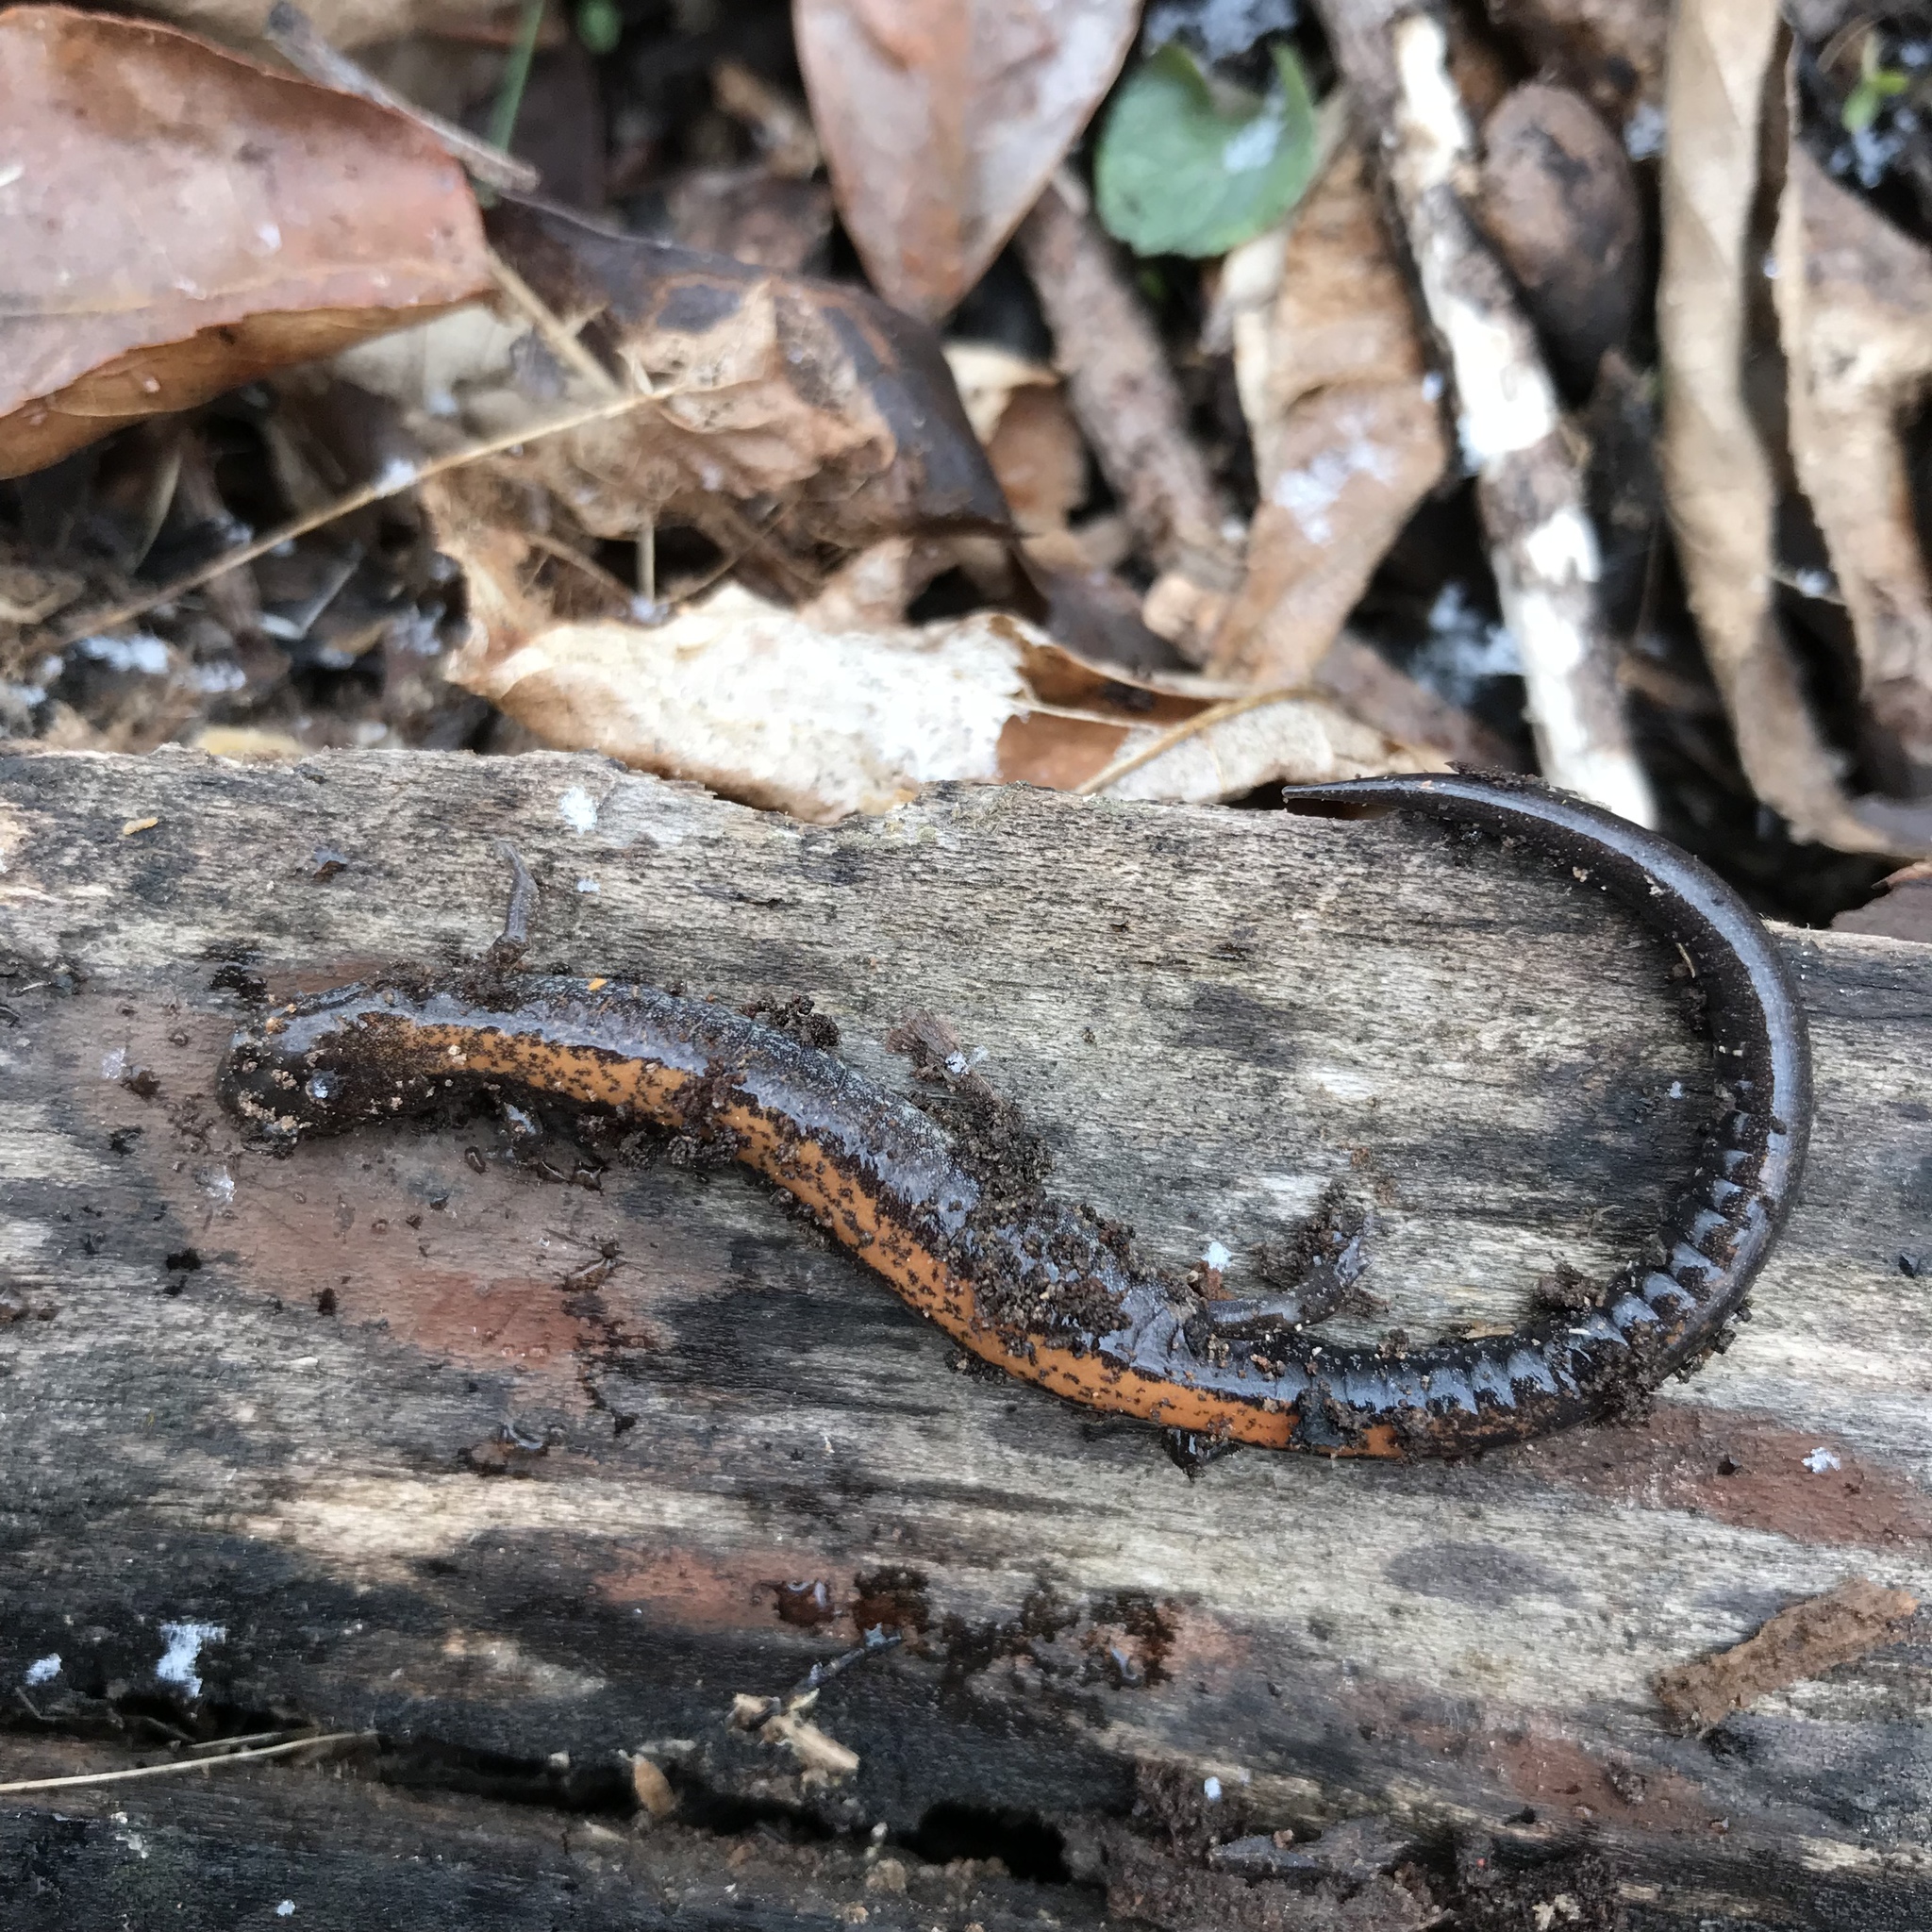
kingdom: Animalia
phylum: Chordata
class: Amphibia
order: Caudata
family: Plethodontidae
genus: Plethodon
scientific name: Plethodon cinereus
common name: Redback salamander
